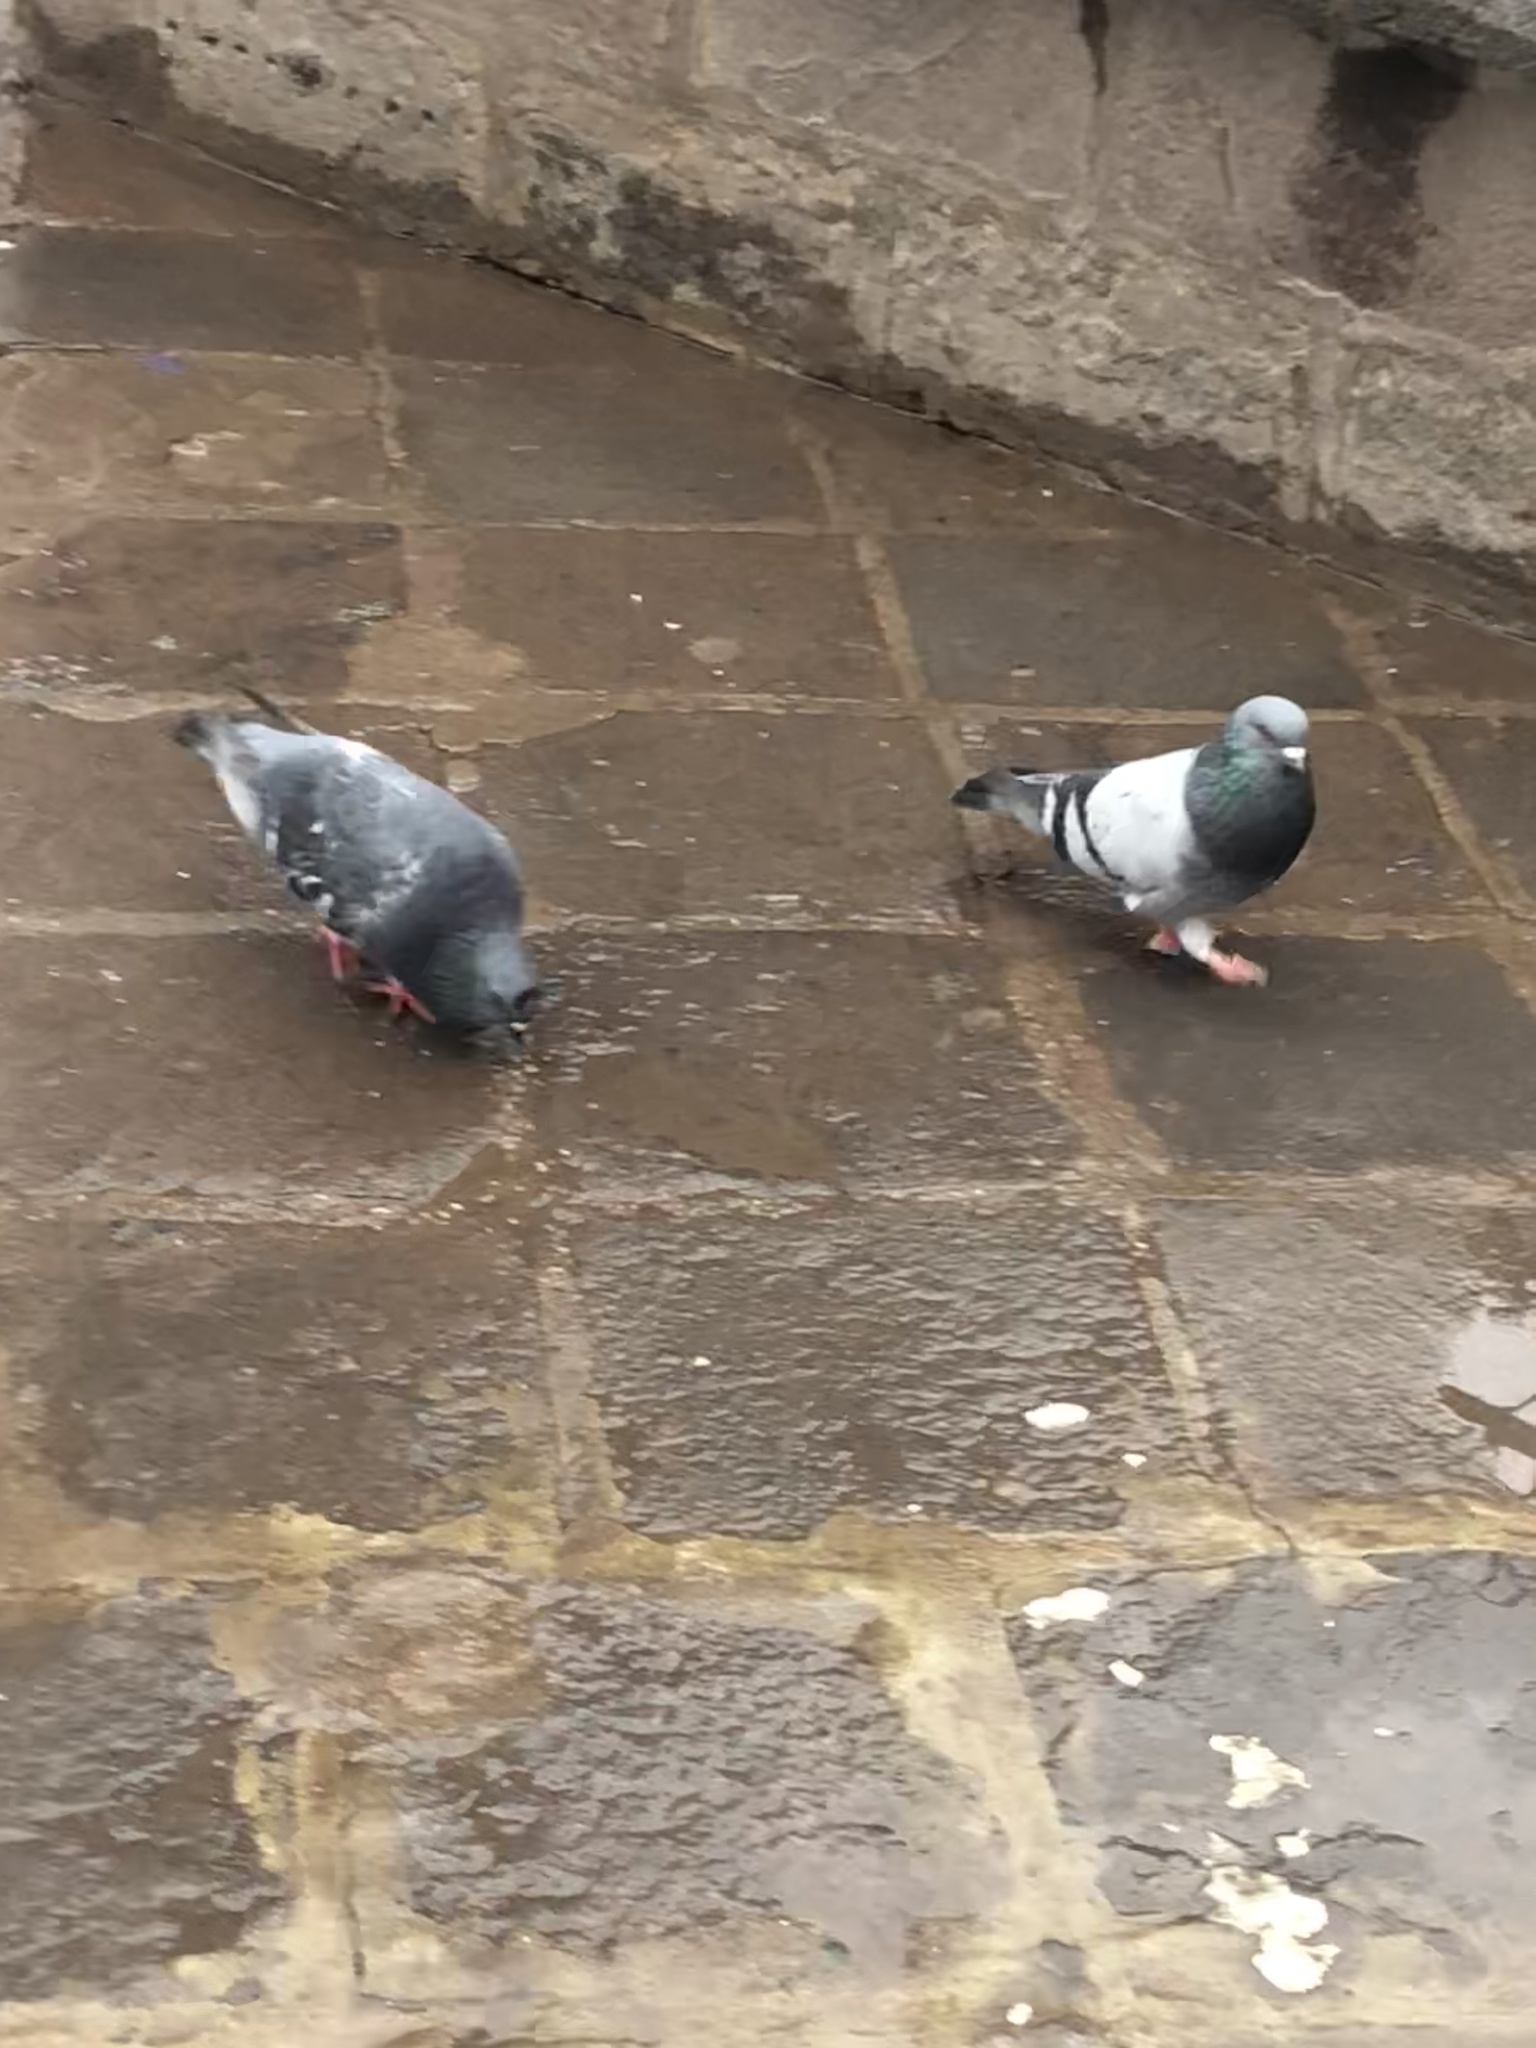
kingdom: Animalia
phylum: Chordata
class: Aves
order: Columbiformes
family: Columbidae
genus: Columba
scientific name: Columba livia
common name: Rock pigeon
